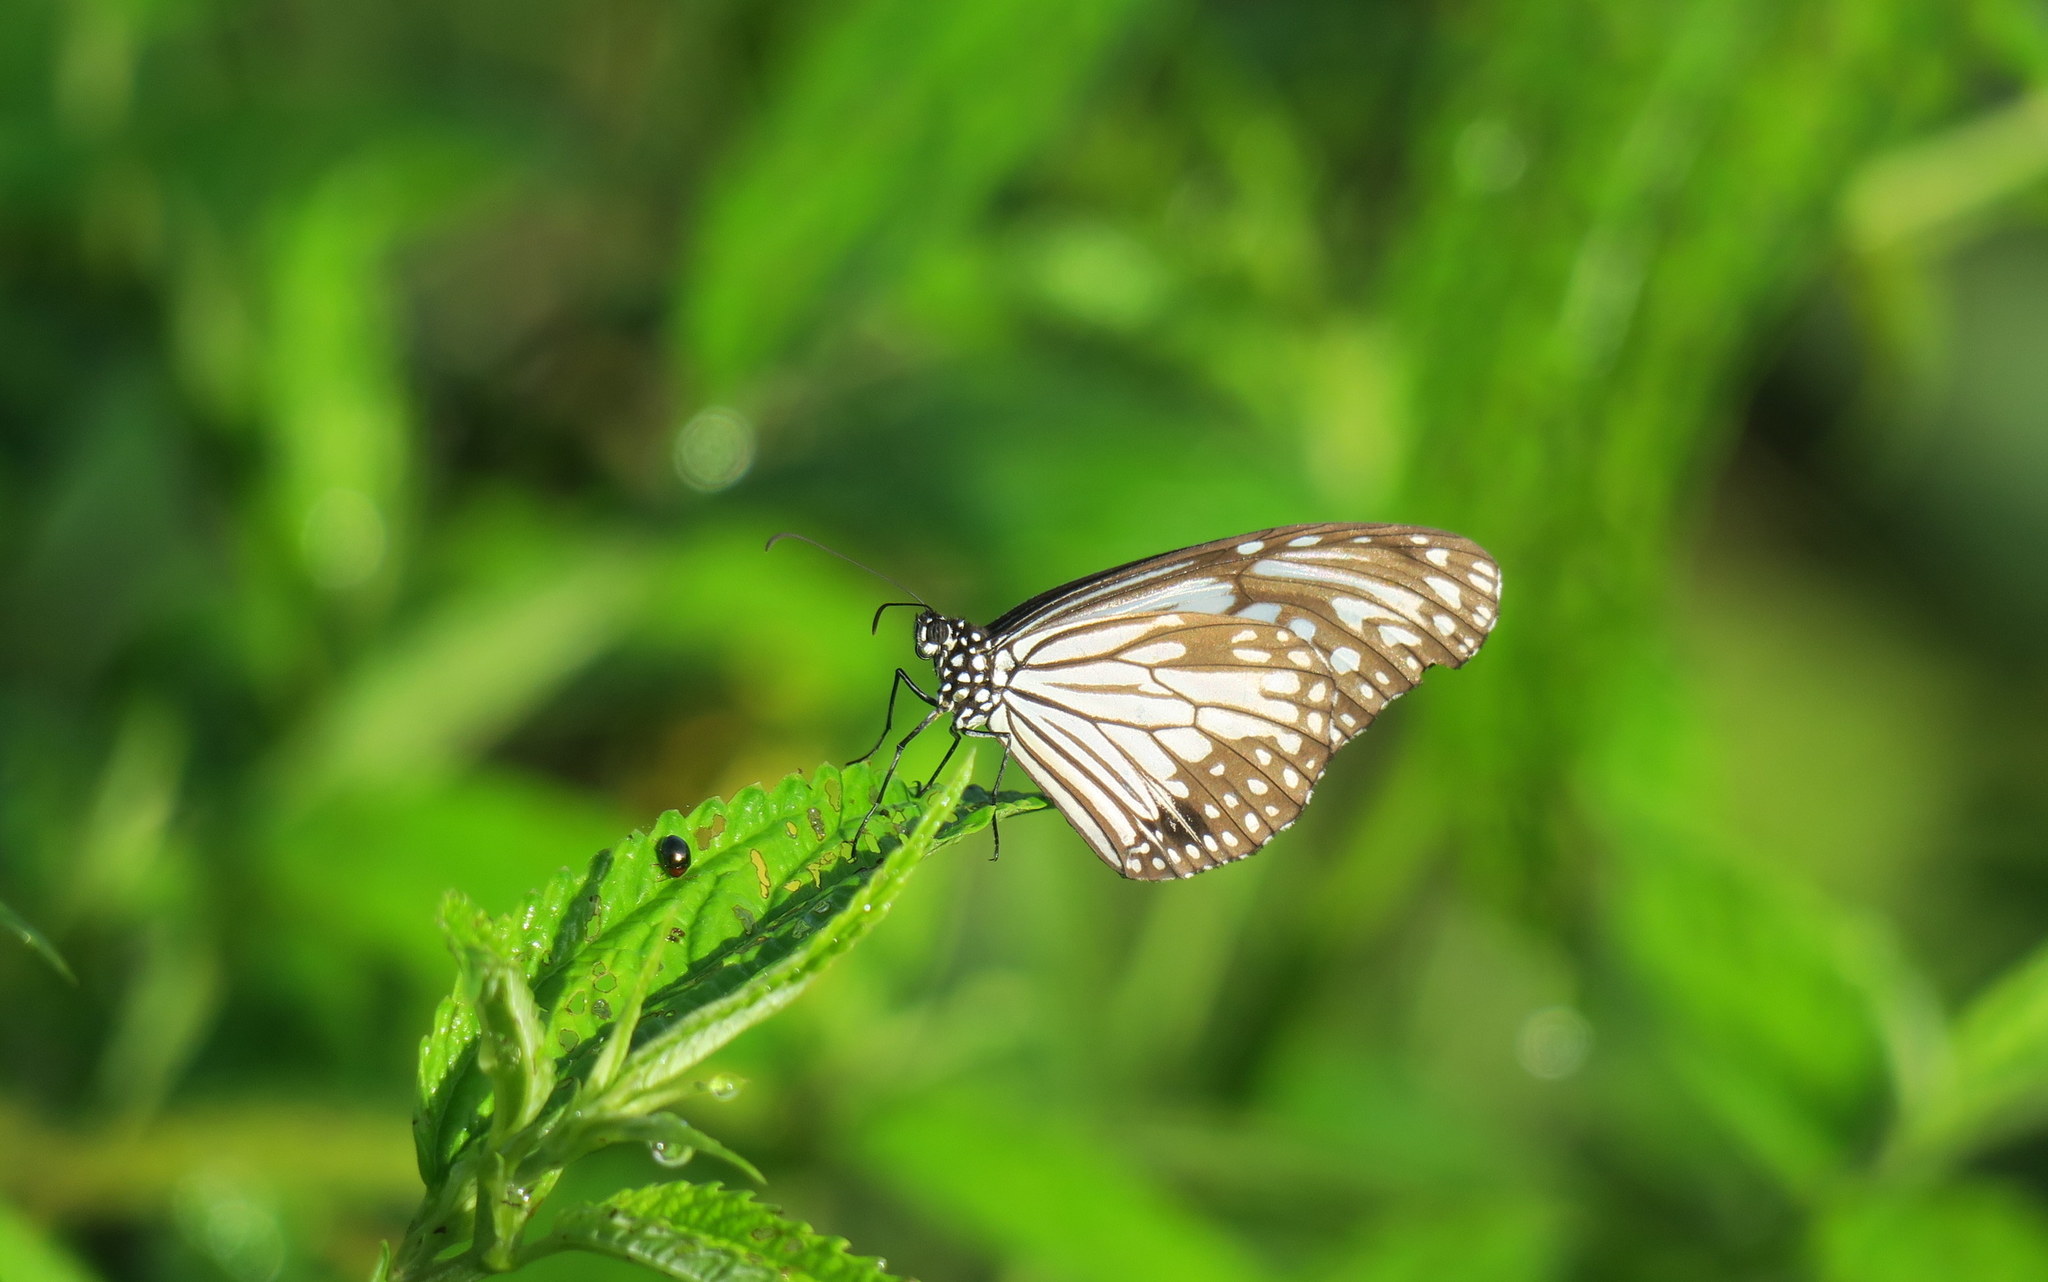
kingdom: Animalia
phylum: Arthropoda
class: Insecta
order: Lepidoptera
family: Nymphalidae
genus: Parantica
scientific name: Parantica aglea
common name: Glassy tiger
